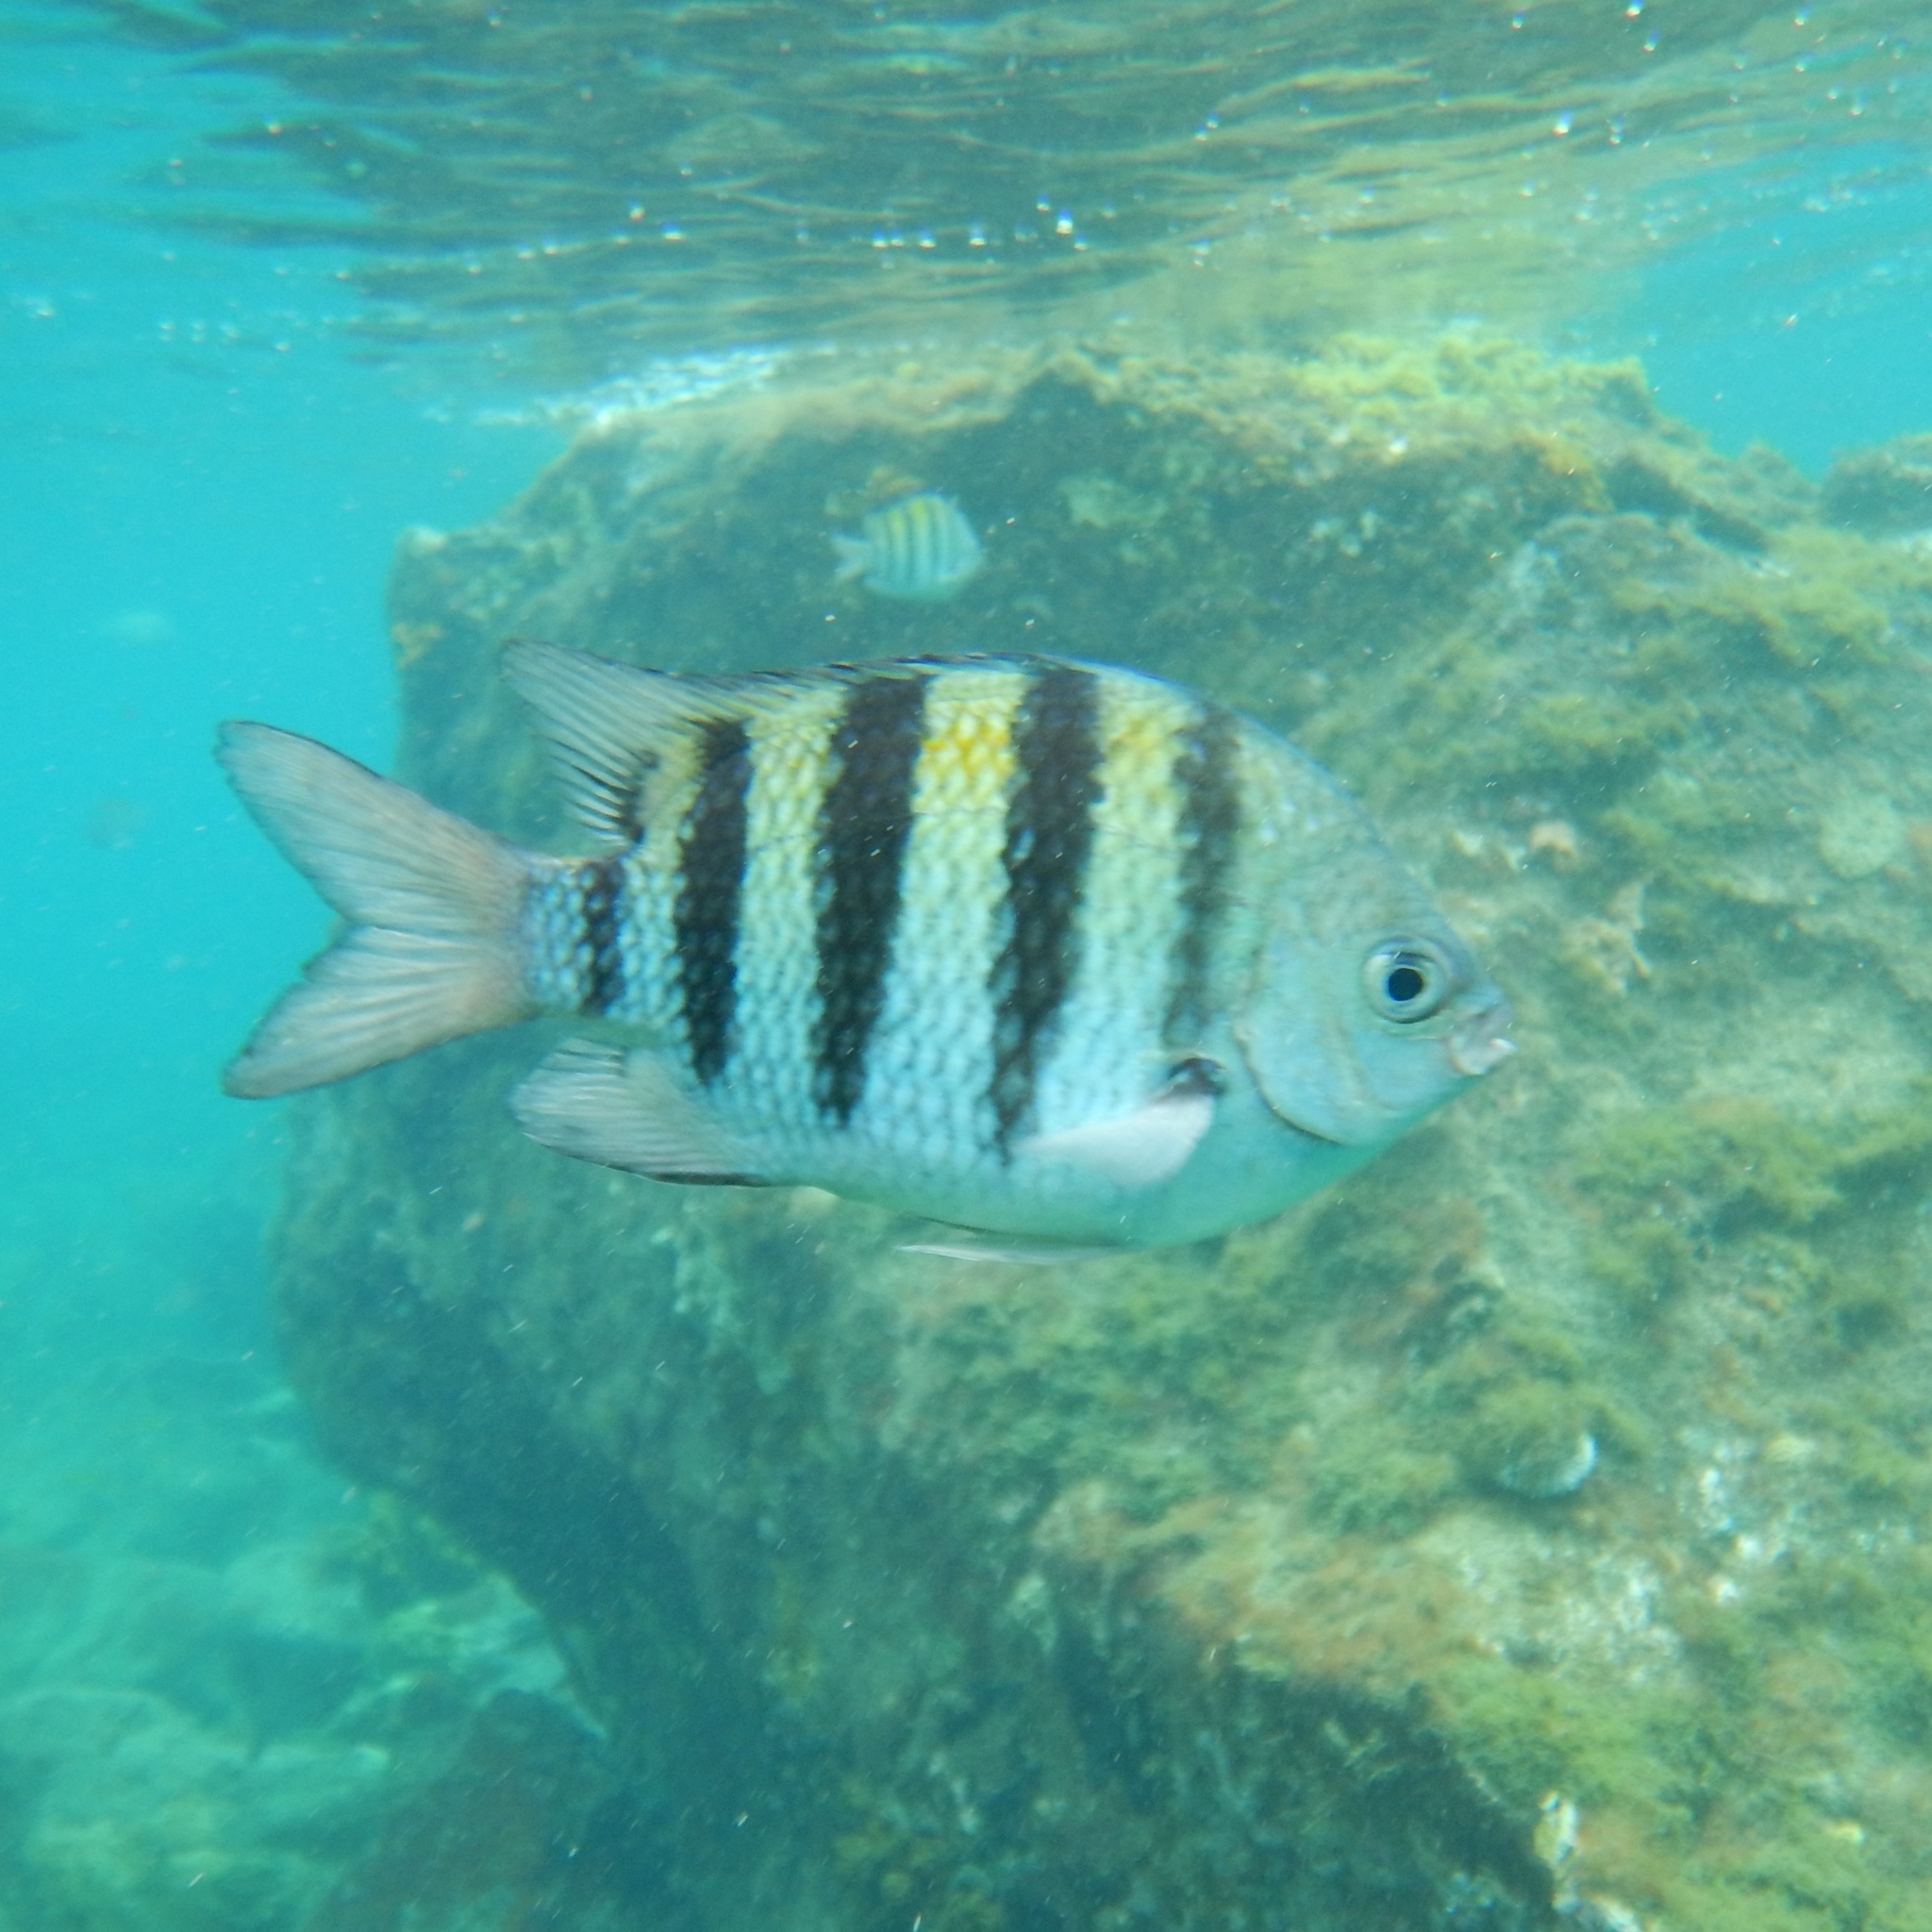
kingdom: Animalia
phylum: Chordata
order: Perciformes
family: Pomacentridae
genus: Abudefduf
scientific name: Abudefduf saxatilis
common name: Sergeant major
